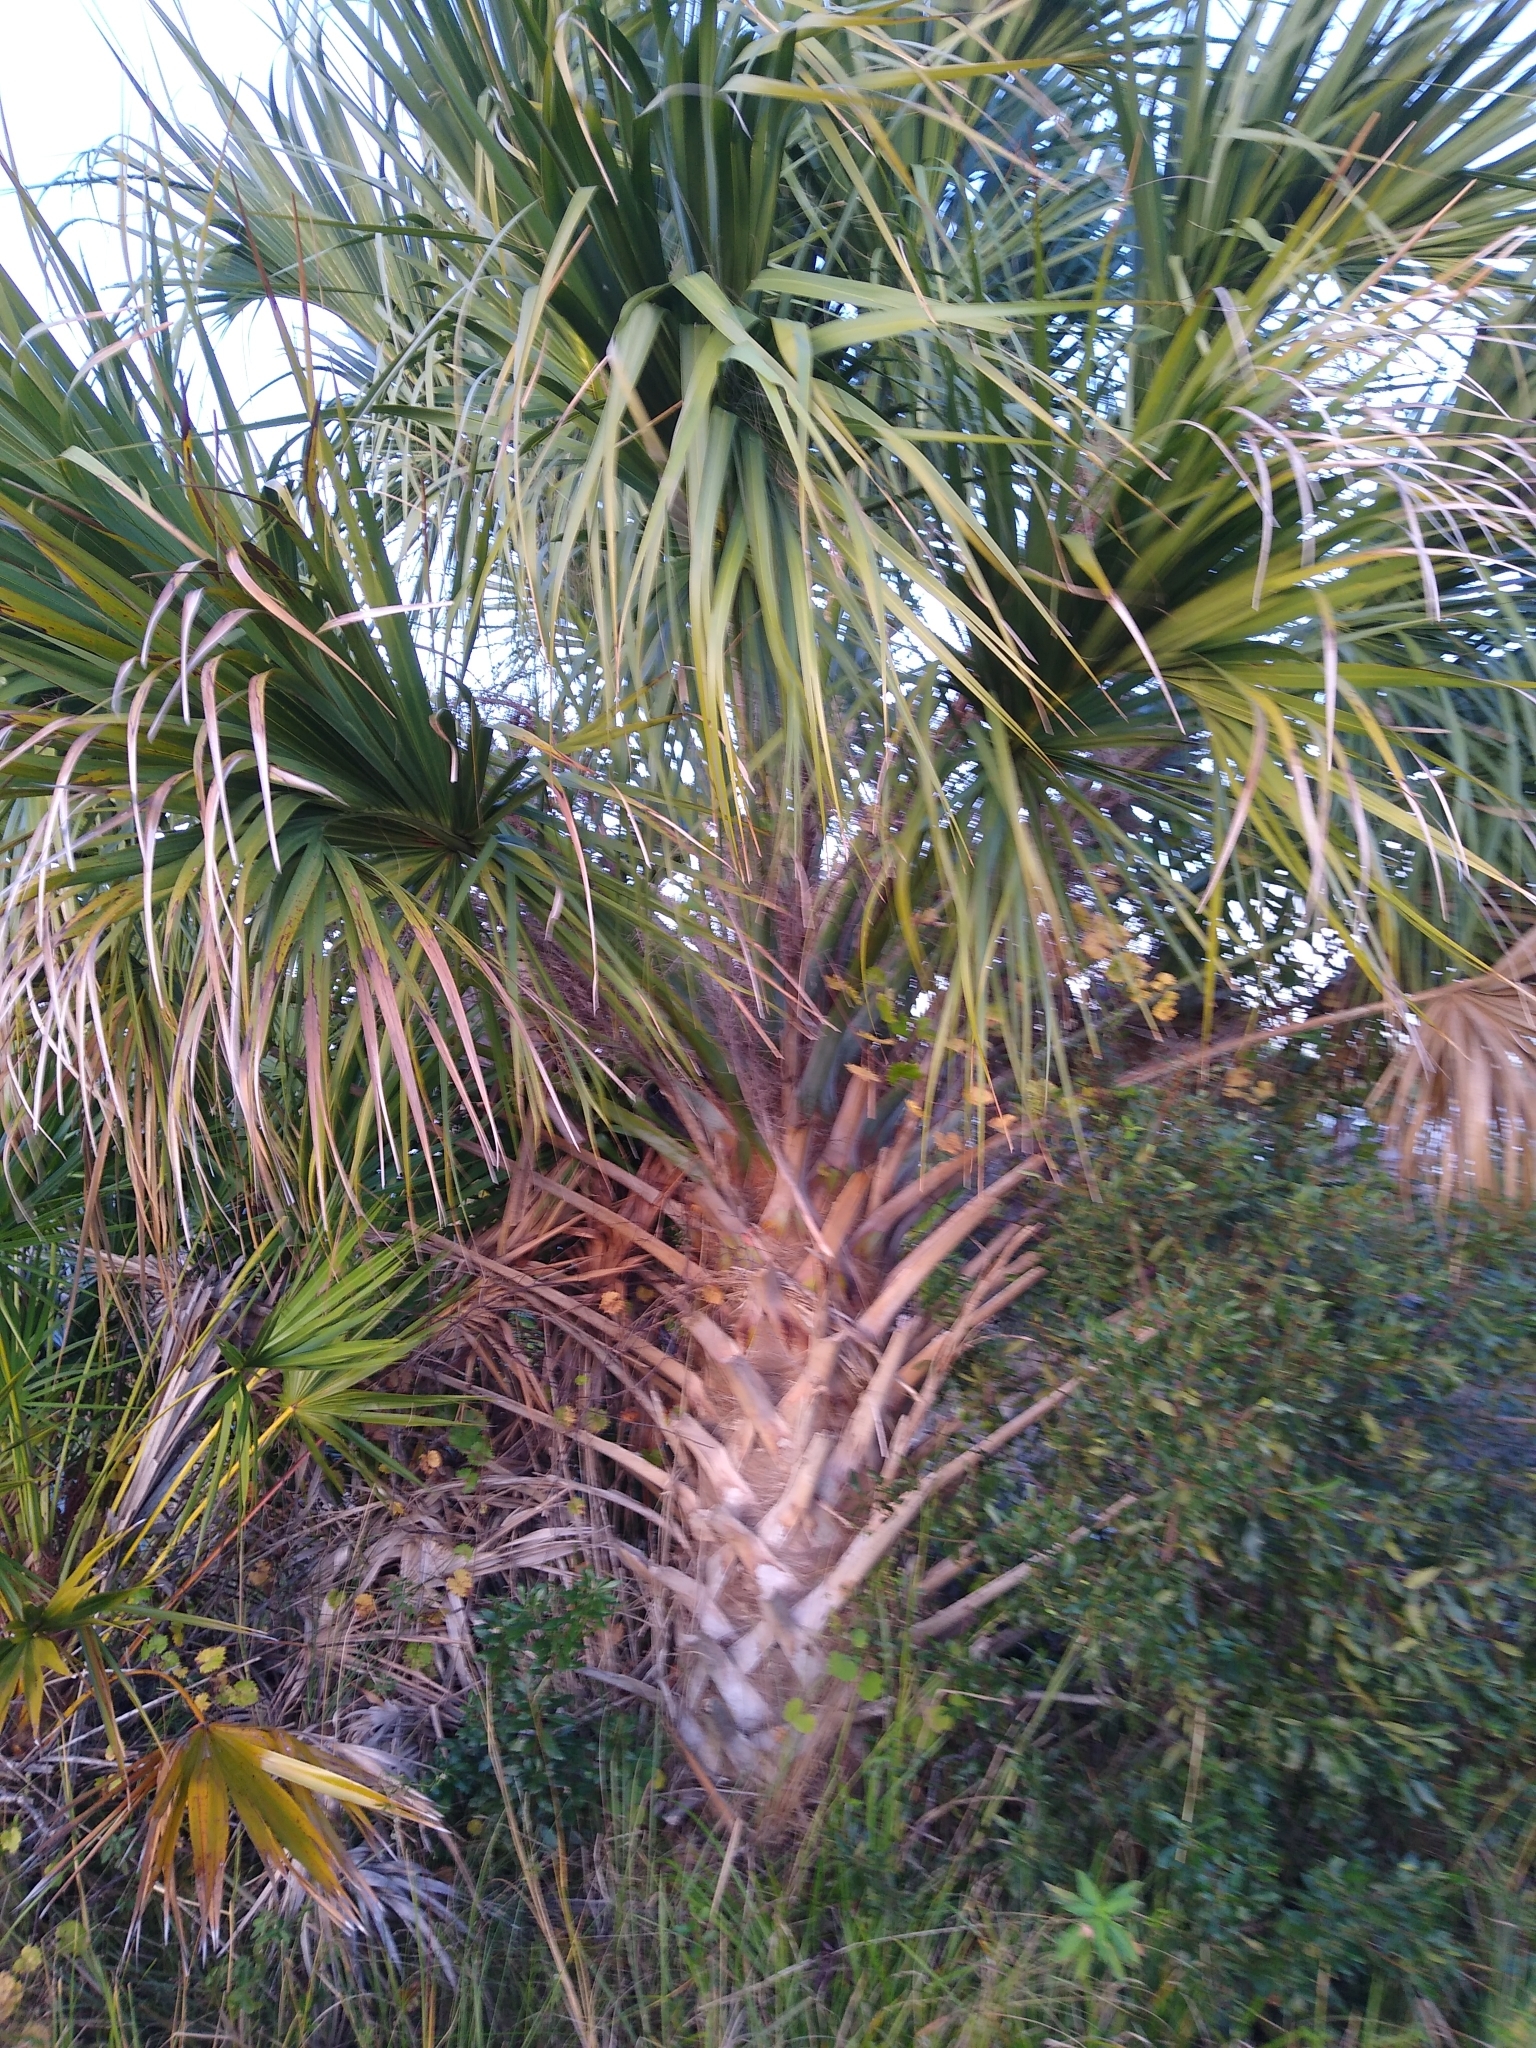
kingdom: Plantae
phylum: Tracheophyta
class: Liliopsida
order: Arecales
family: Arecaceae
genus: Sabal
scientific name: Sabal palmetto
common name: Blue palmetto
